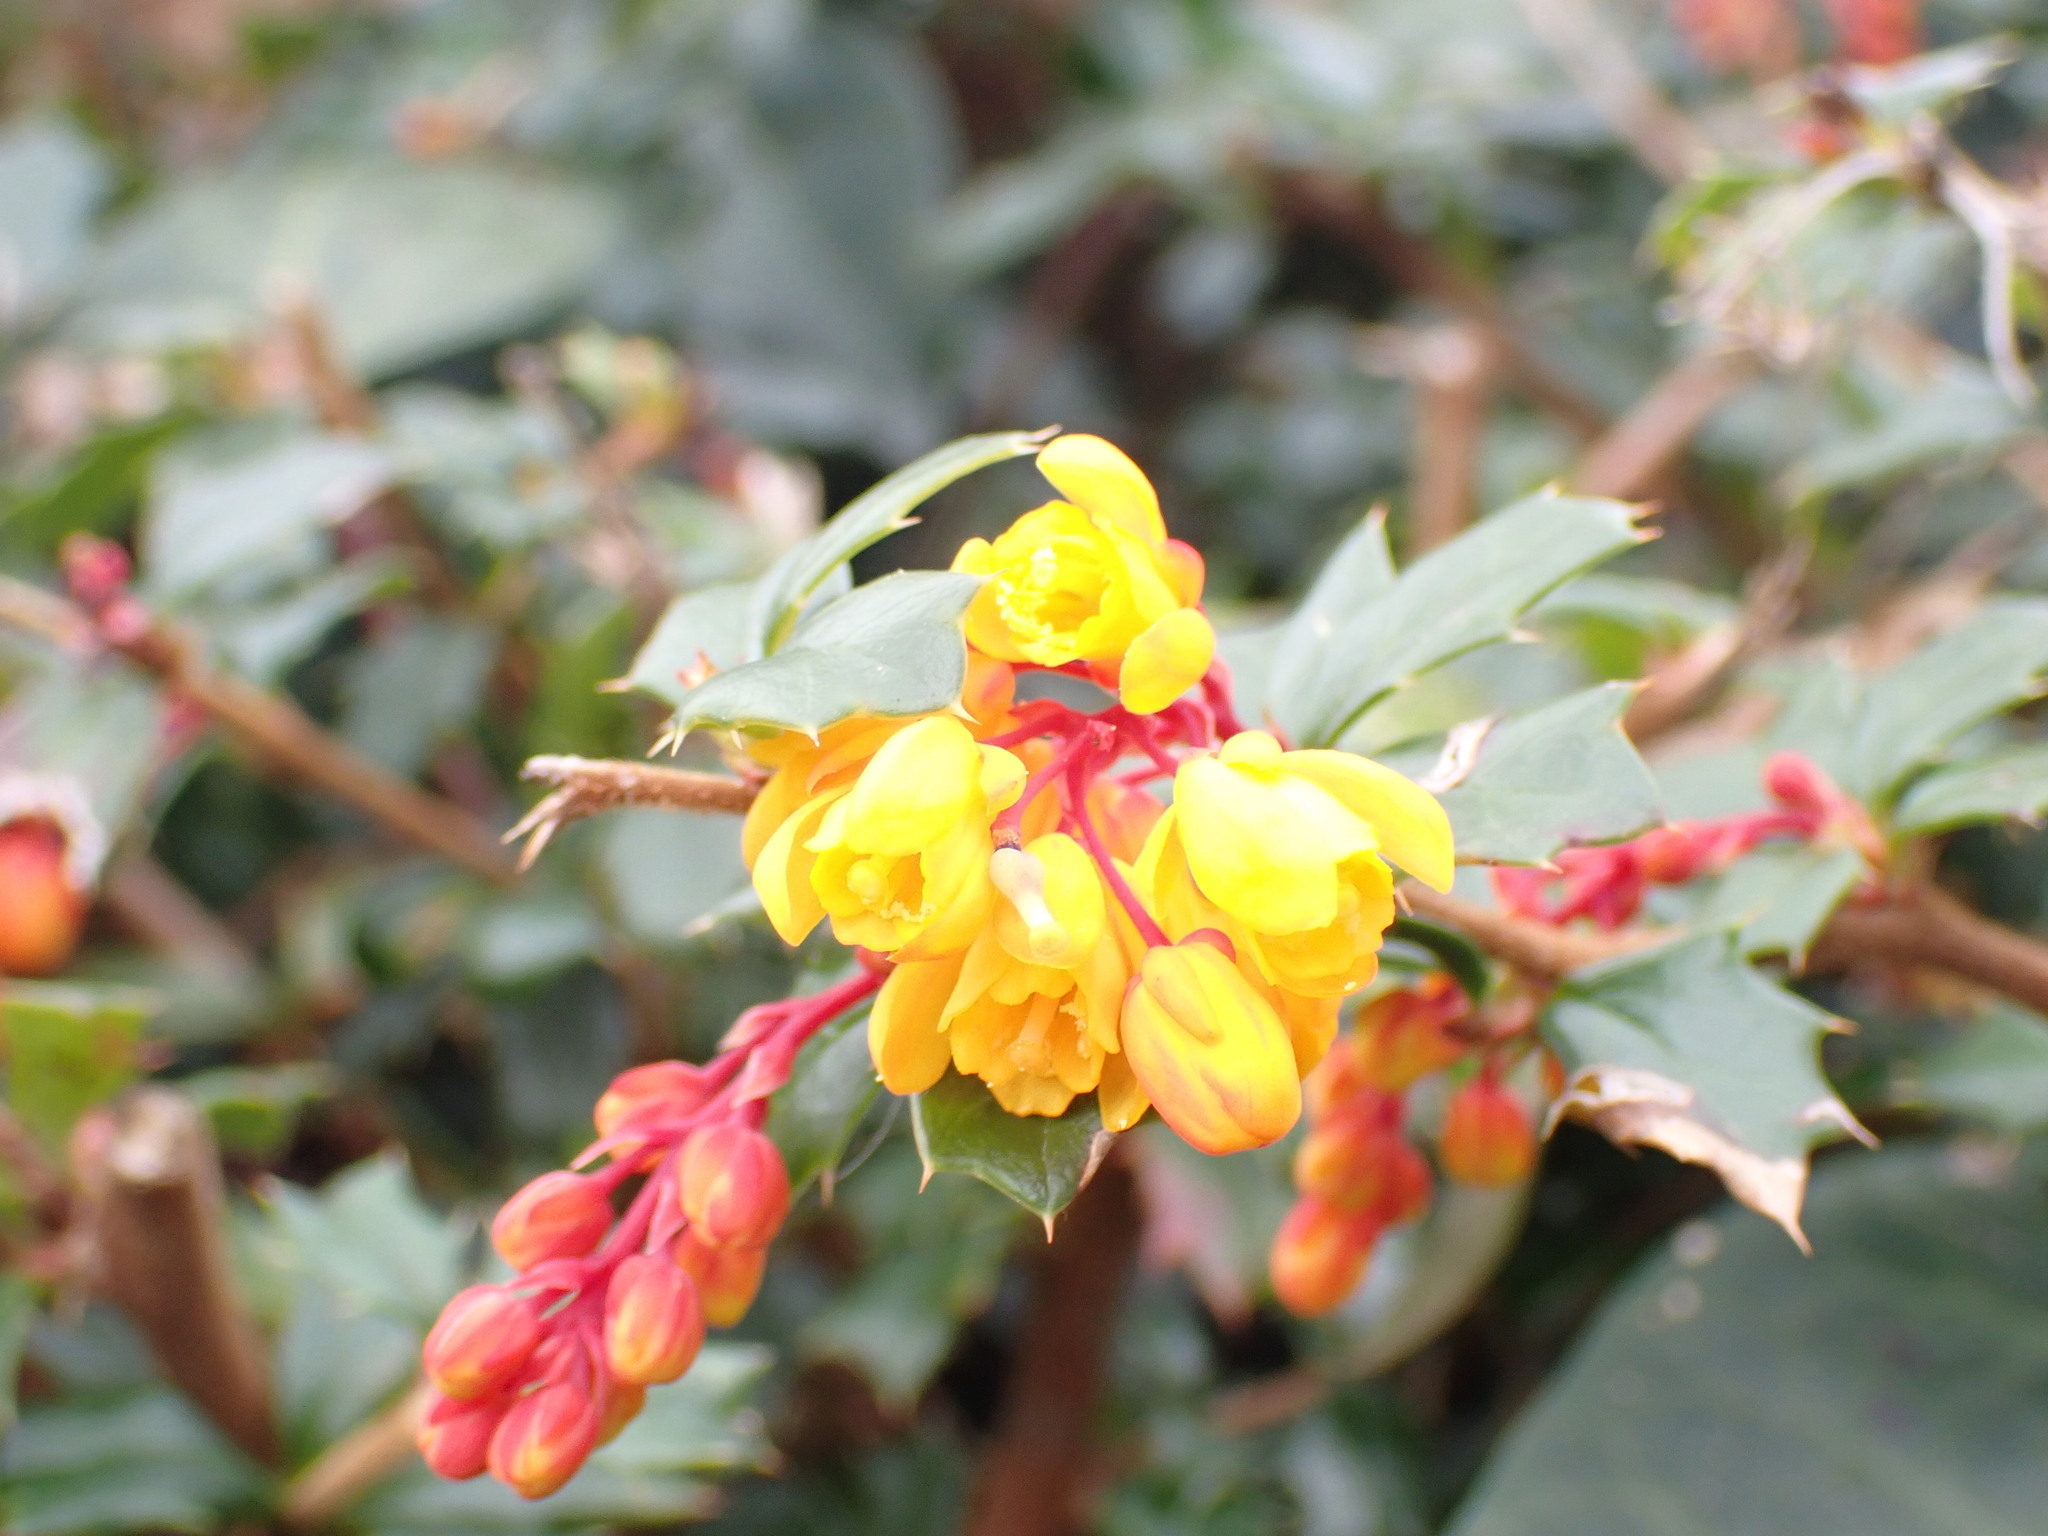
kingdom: Plantae
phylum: Tracheophyta
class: Magnoliopsida
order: Ranunculales
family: Berberidaceae
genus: Berberis
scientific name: Berberis darwinii
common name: Darwin's barberry
